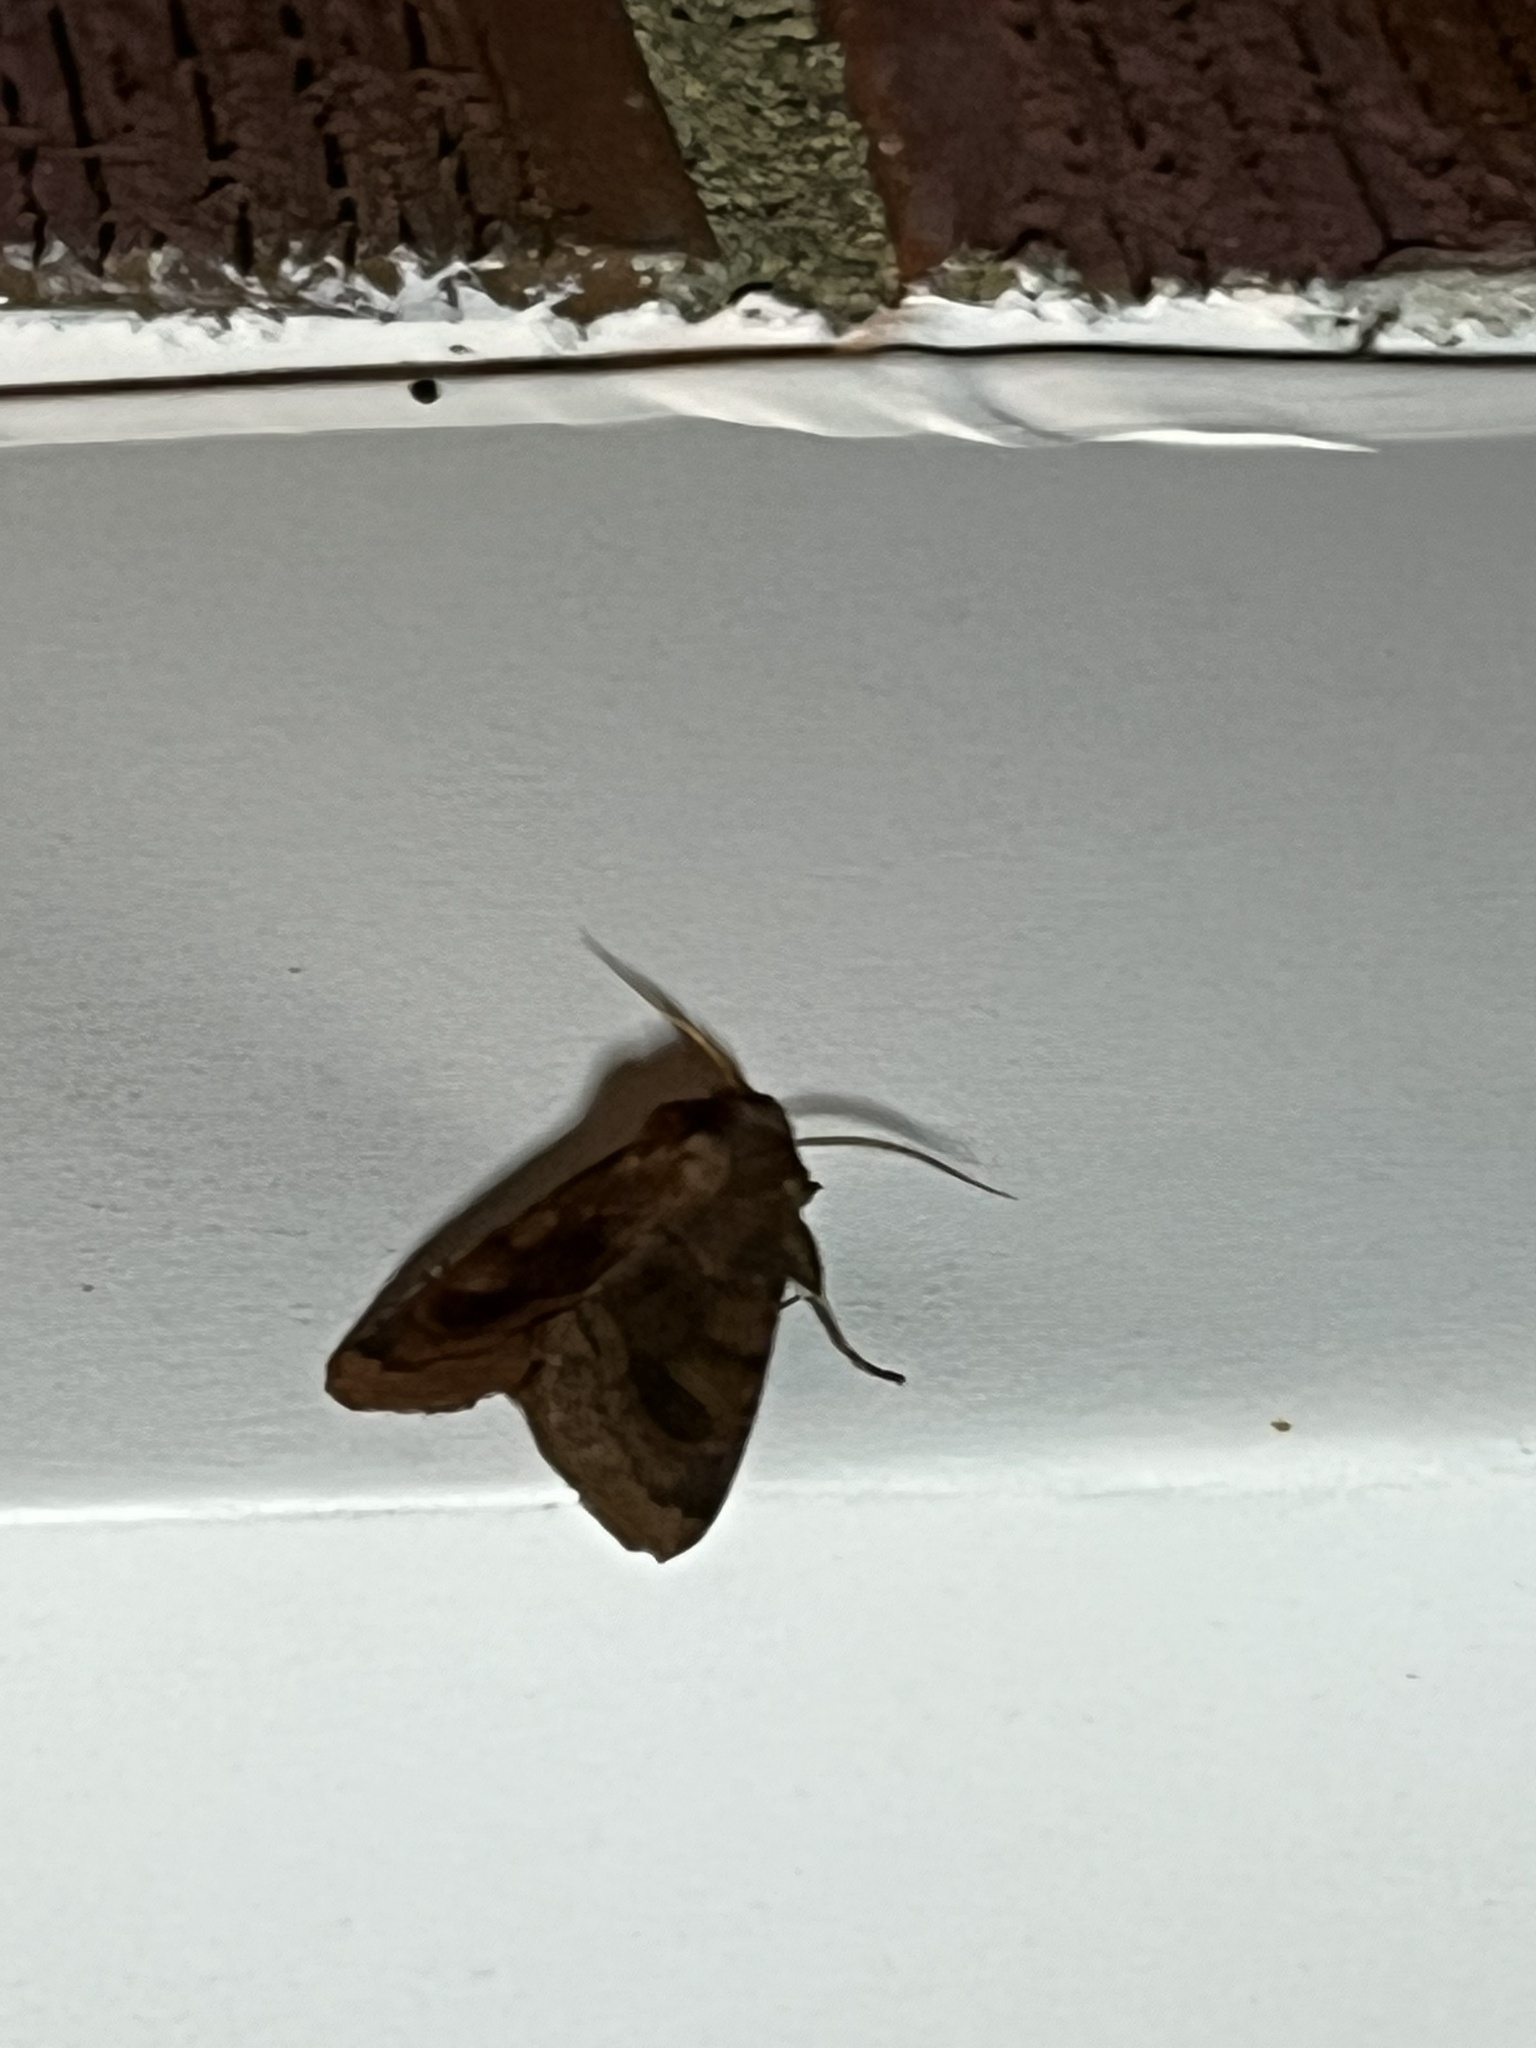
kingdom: Animalia
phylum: Arthropoda
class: Insecta
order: Lepidoptera
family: Noctuidae
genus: Nephelodes
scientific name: Nephelodes minians
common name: Bronzed cutworm
